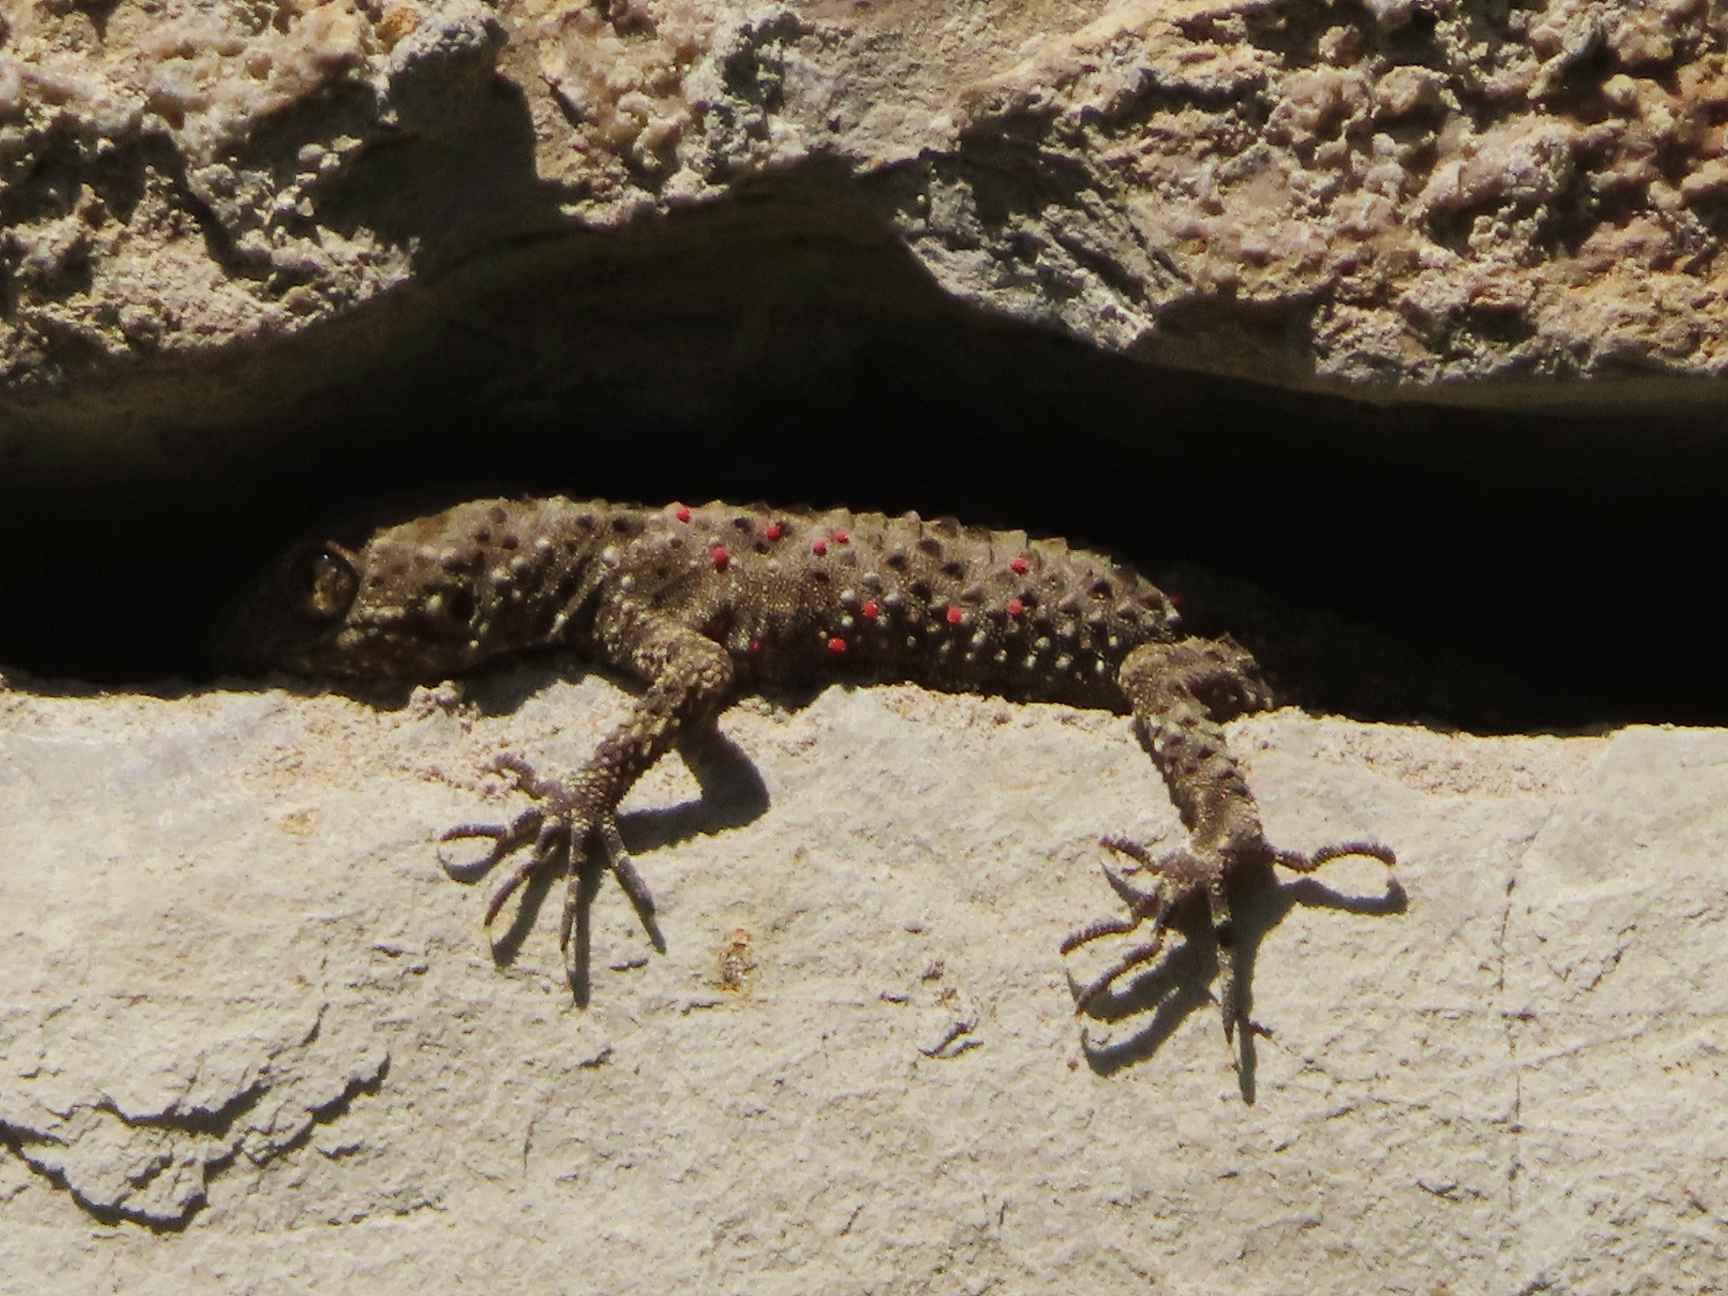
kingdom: Animalia
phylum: Chordata
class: Squamata
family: Gekkonidae
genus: Tenuidactylus
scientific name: Tenuidactylus caspius
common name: Caspian bent-toed gecko
